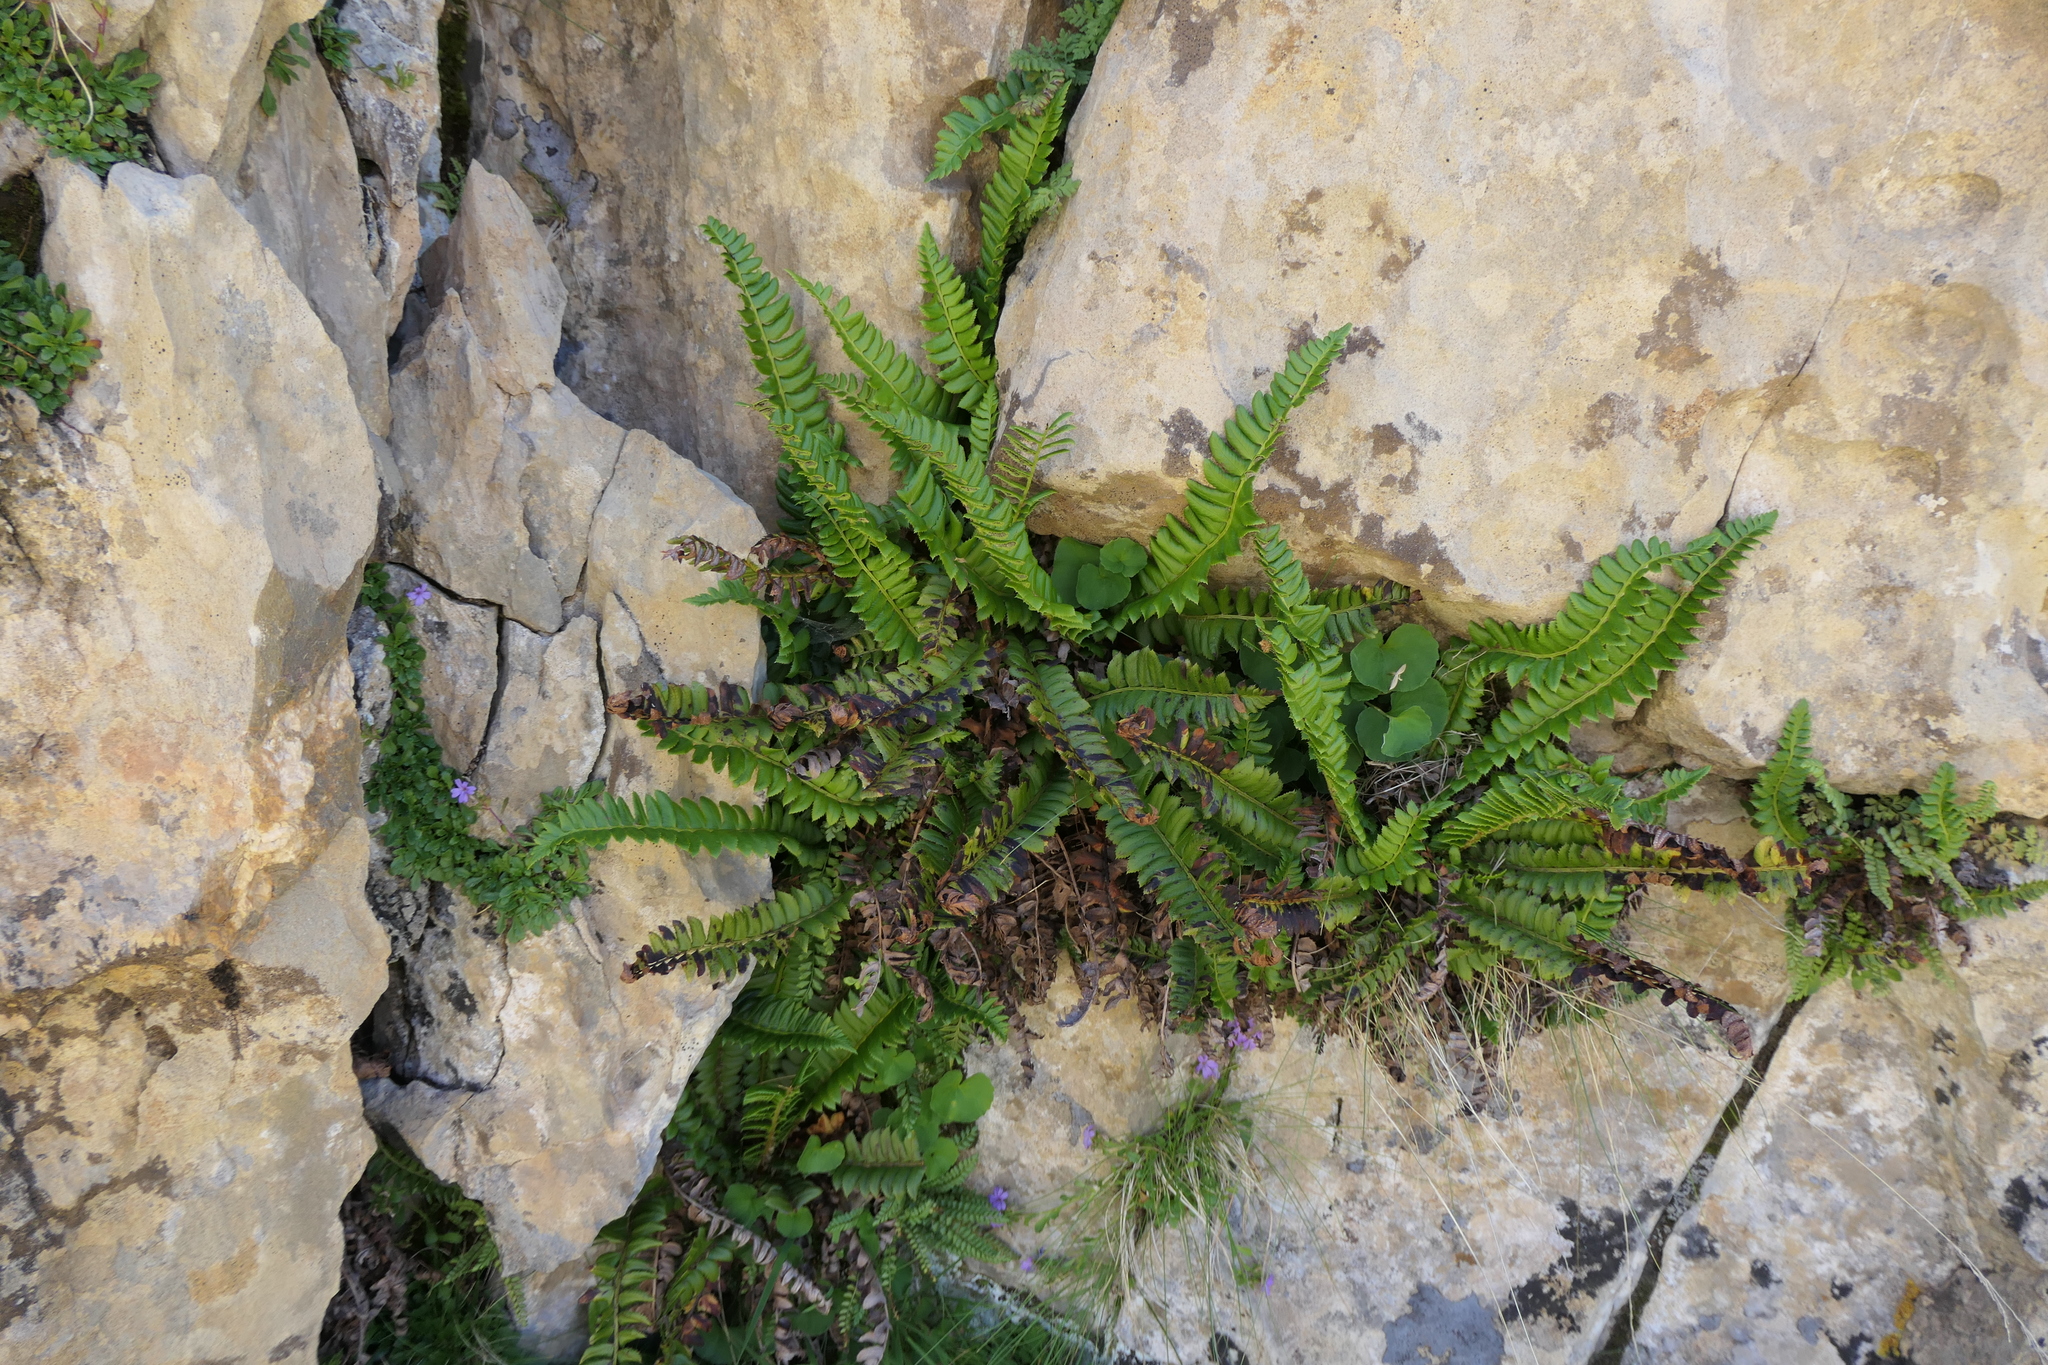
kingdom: Plantae
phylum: Tracheophyta
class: Polypodiopsida
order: Polypodiales
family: Dryopteridaceae
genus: Polystichum
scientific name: Polystichum lonchitis
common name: Holly fern
